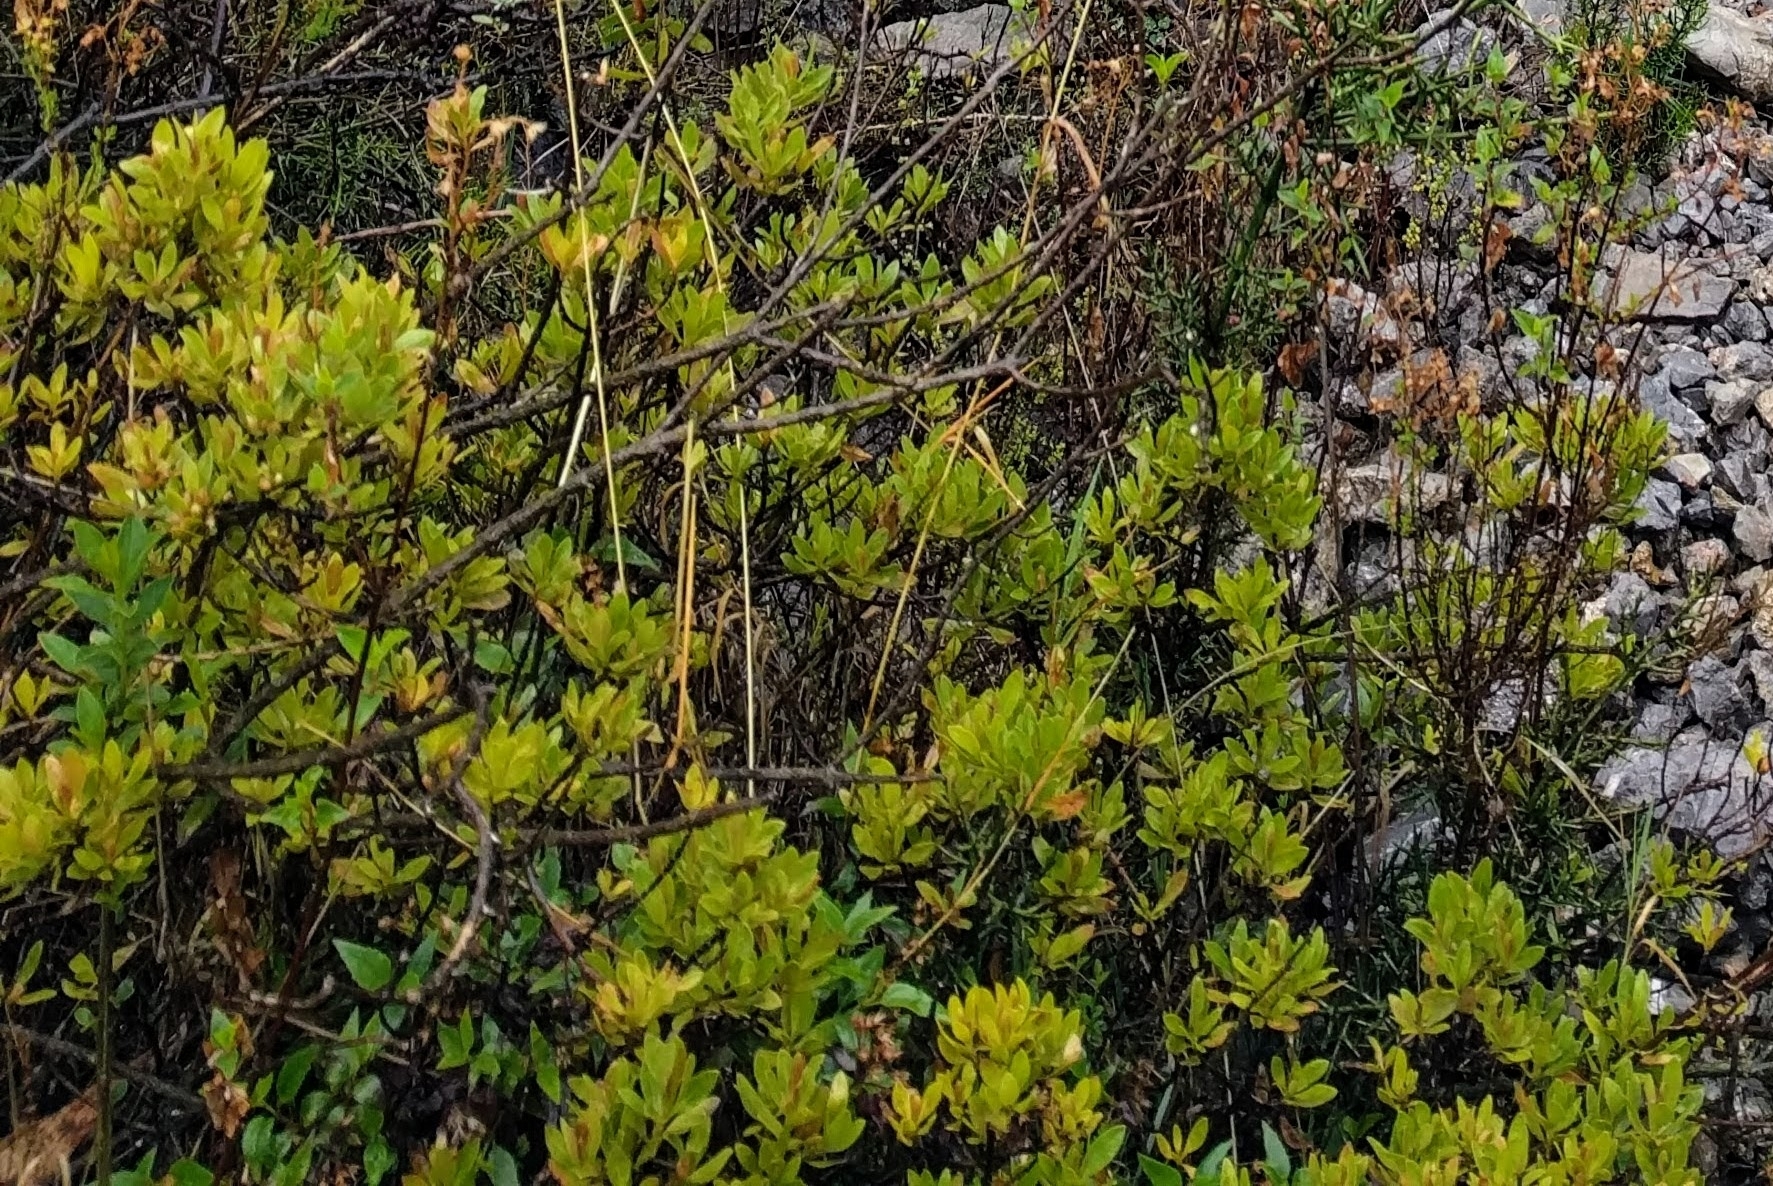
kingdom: Plantae
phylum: Tracheophyta
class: Magnoliopsida
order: Asterales
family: Asteraceae
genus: Baccharis
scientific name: Baccharis odorata
